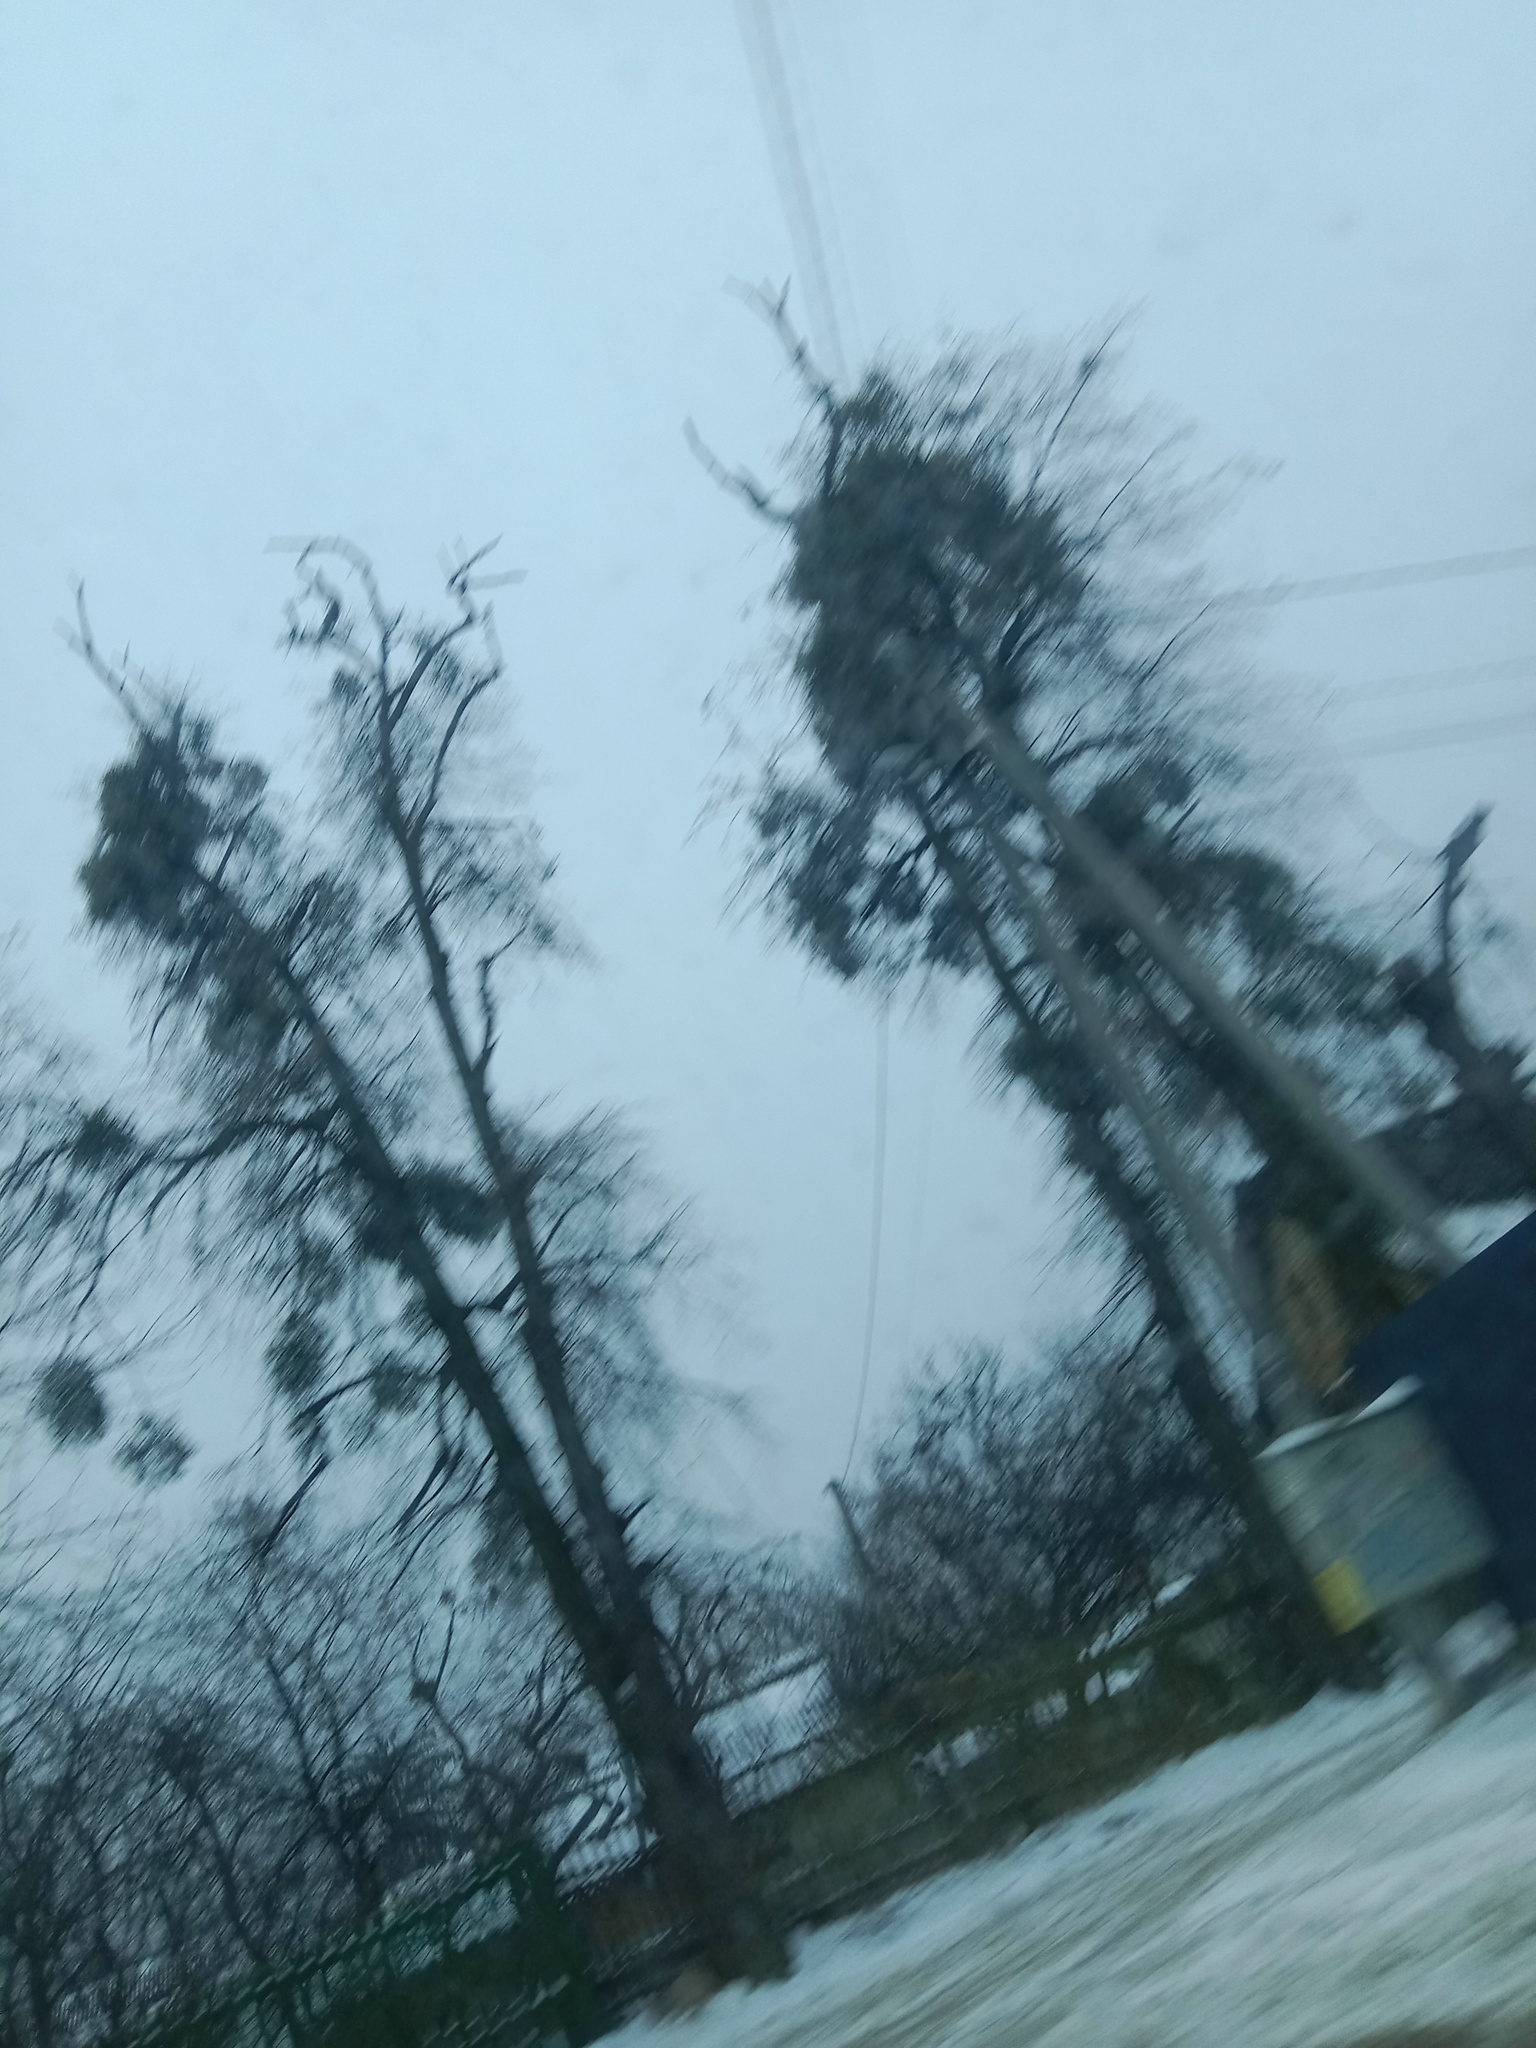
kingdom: Plantae
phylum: Tracheophyta
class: Magnoliopsida
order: Santalales
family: Viscaceae
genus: Viscum
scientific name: Viscum album
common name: Mistletoe
